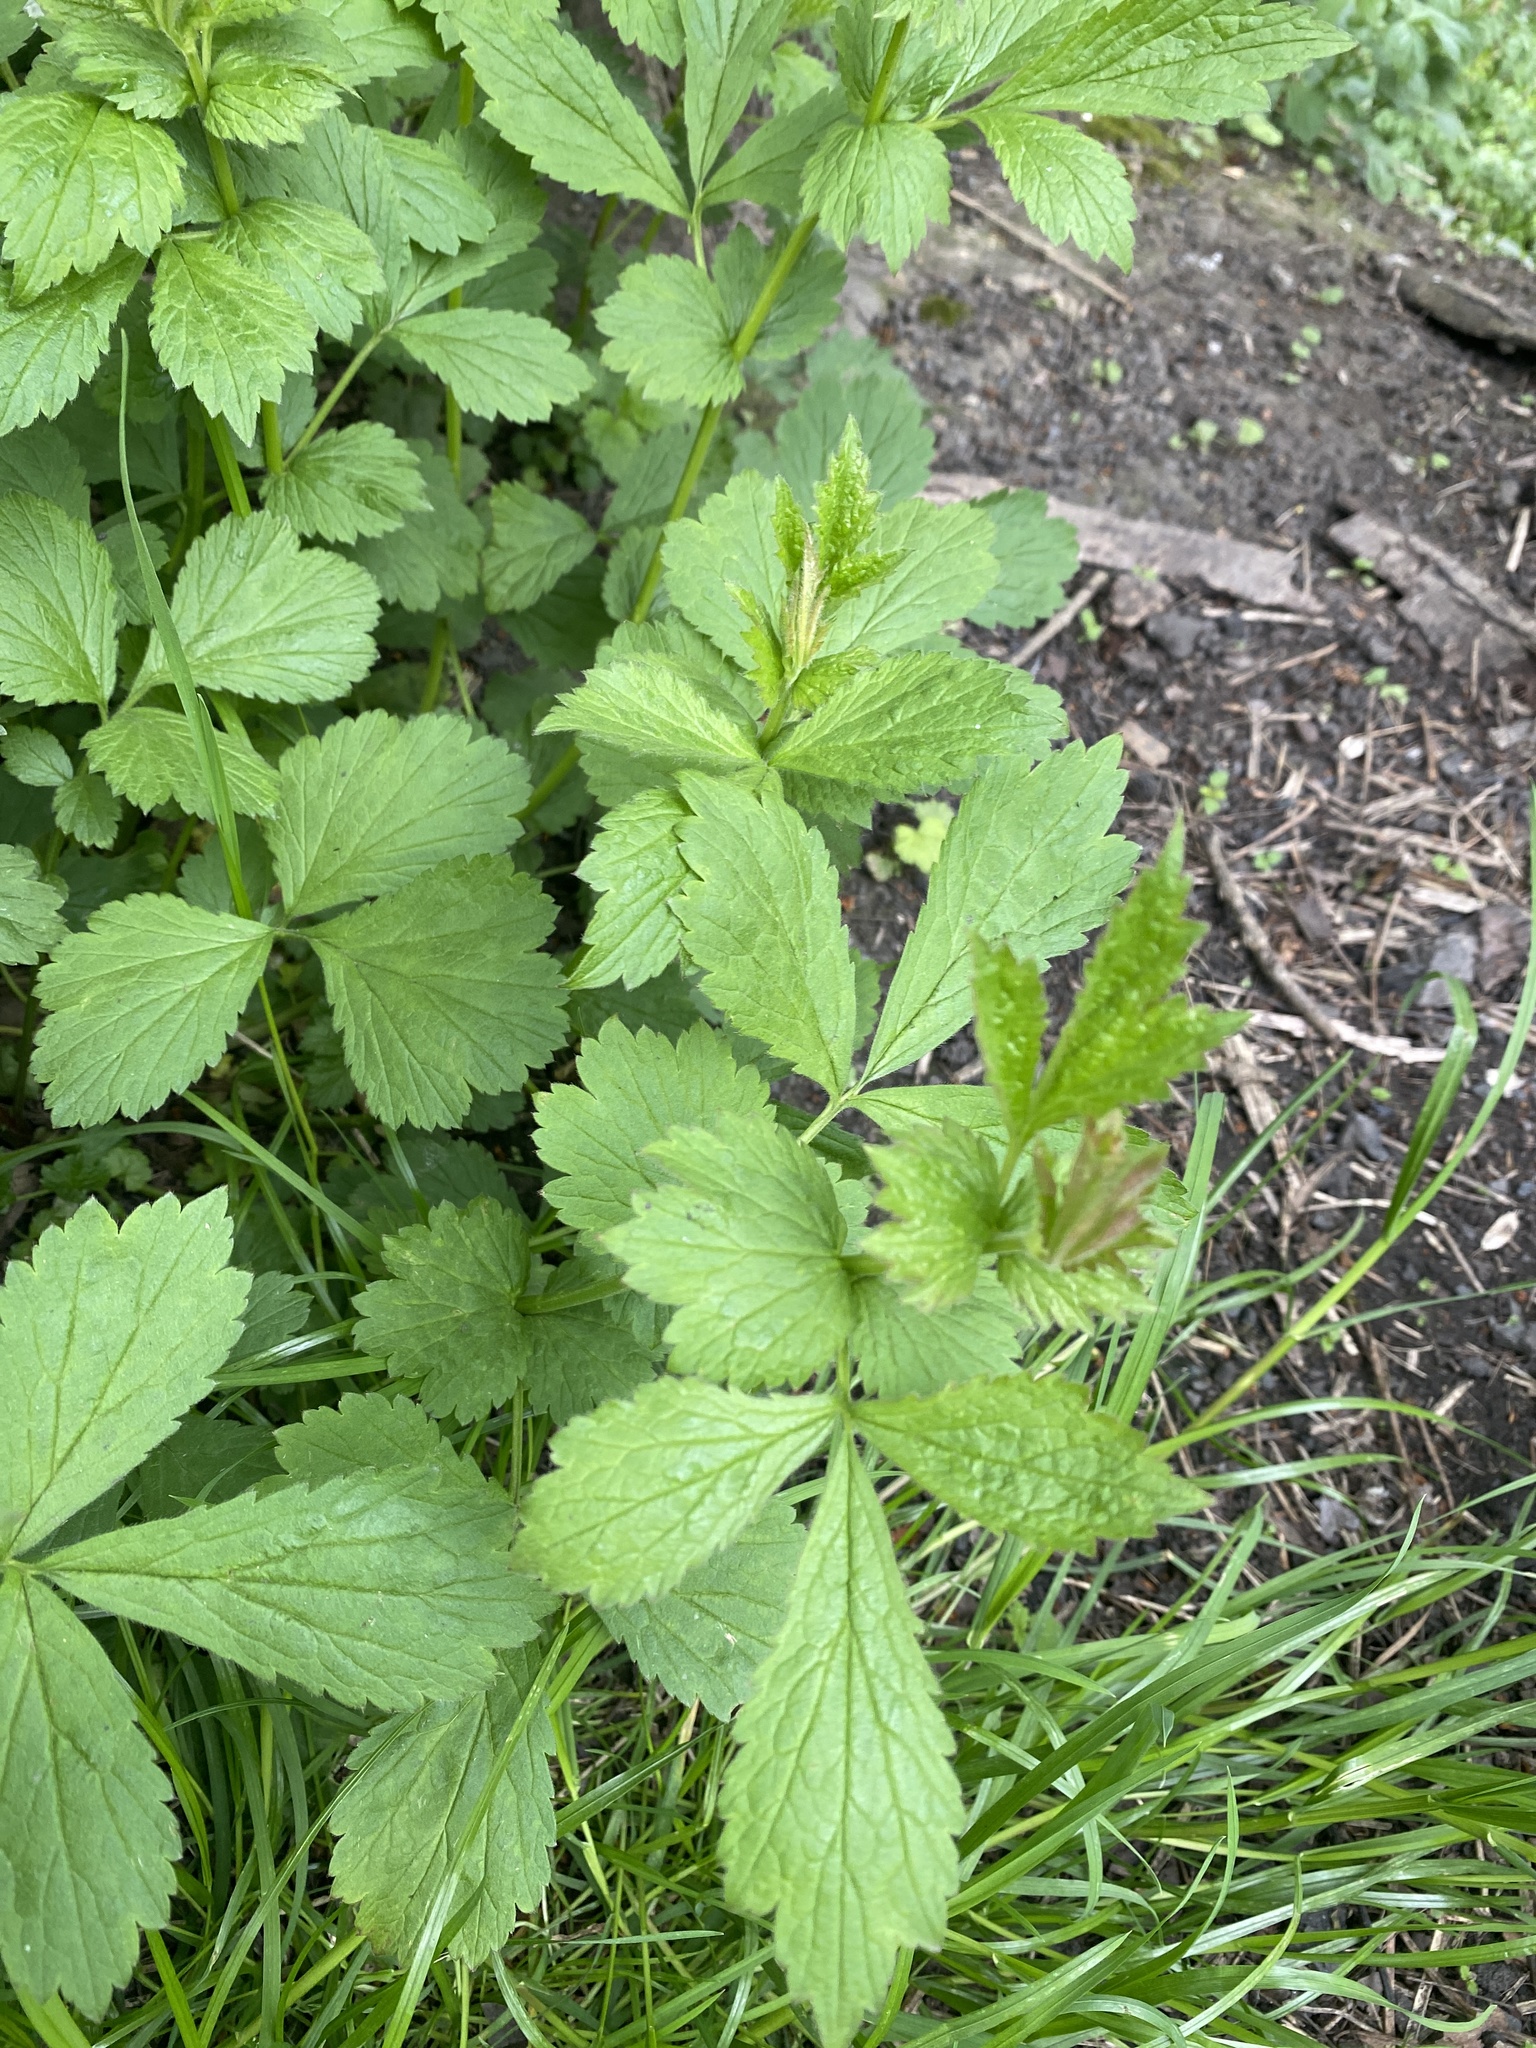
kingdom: Plantae
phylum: Tracheophyta
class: Magnoliopsida
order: Rosales
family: Rosaceae
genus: Geum
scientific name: Geum urbanum
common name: Wood avens
